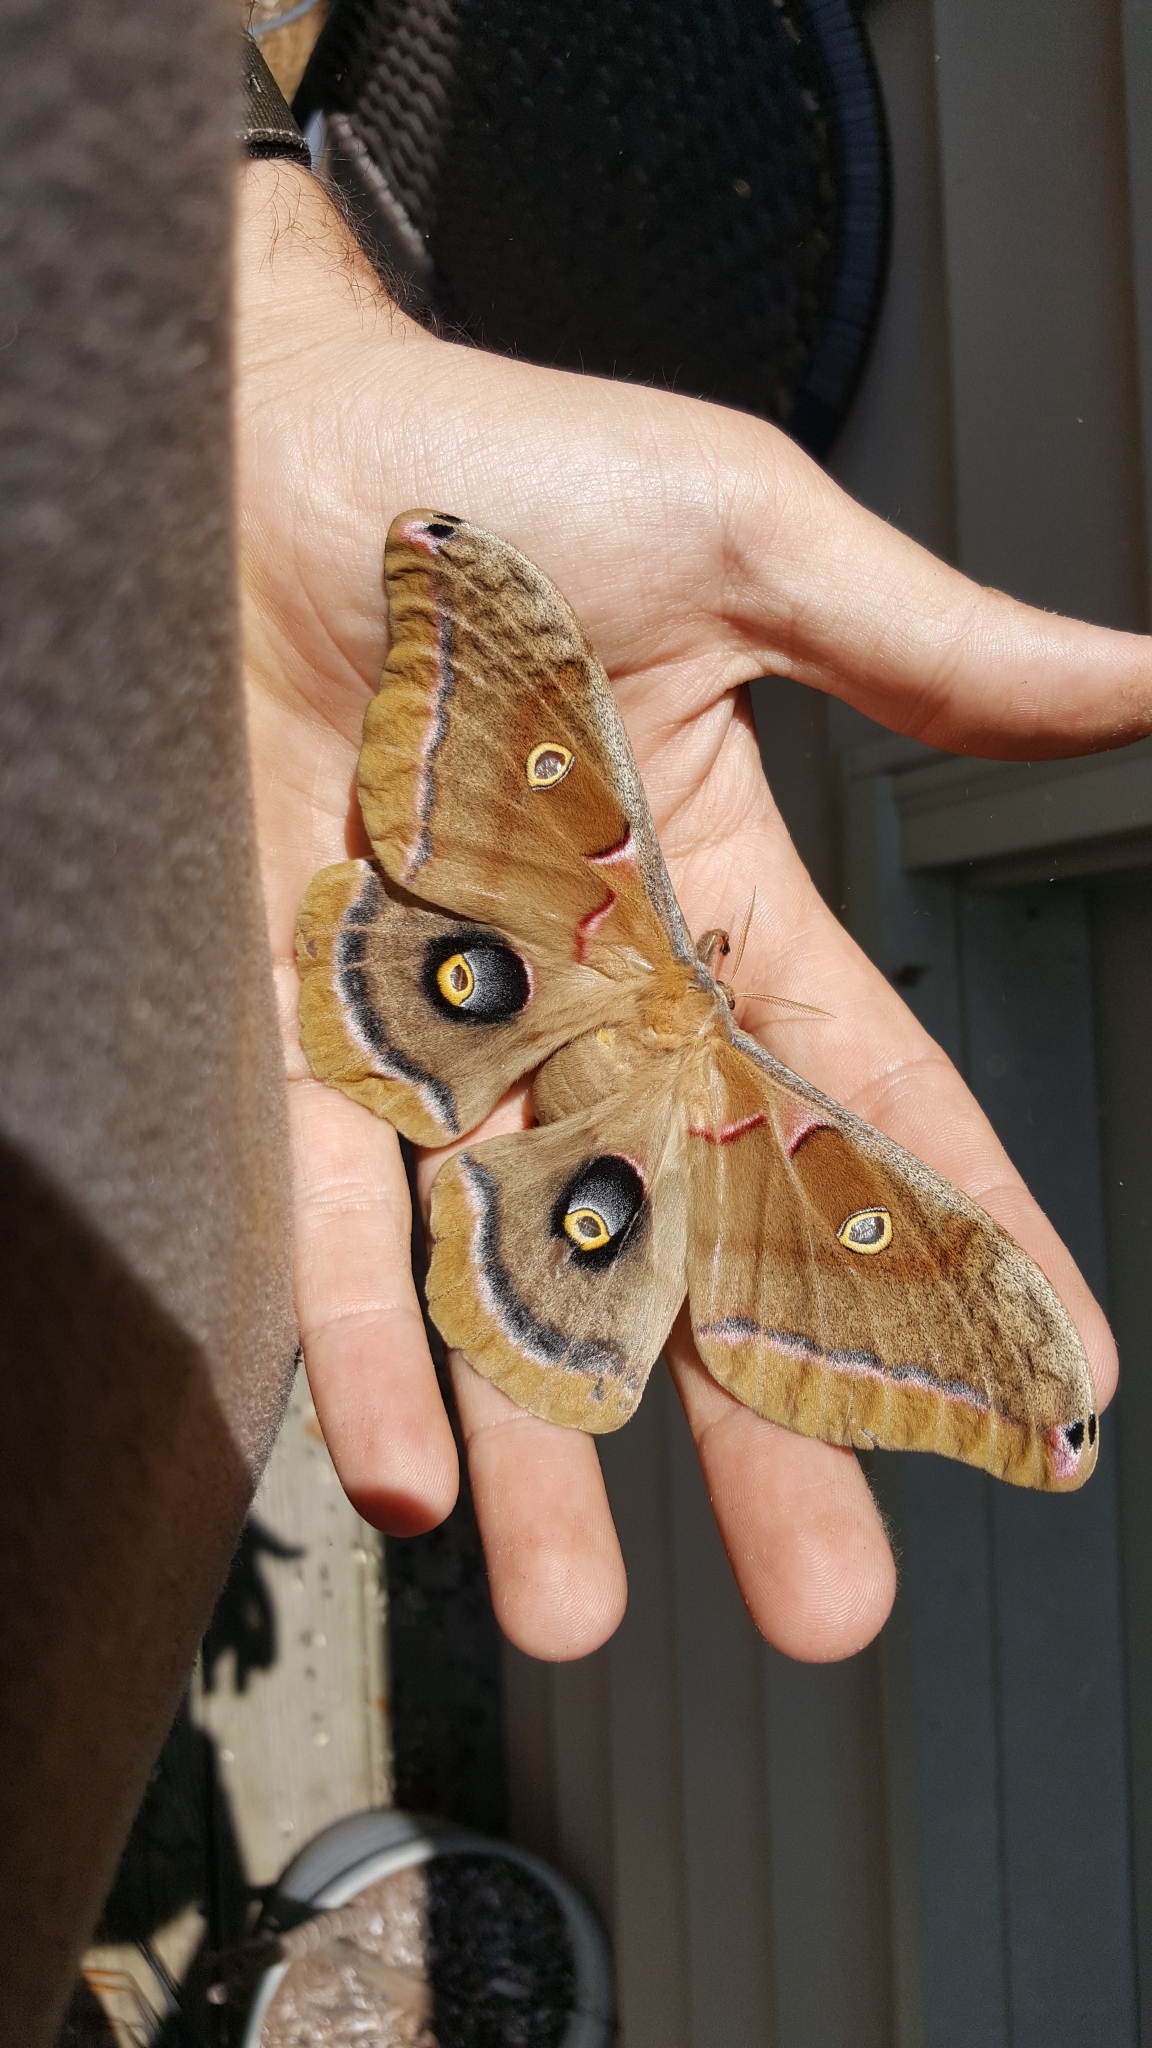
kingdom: Animalia
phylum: Arthropoda
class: Insecta
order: Lepidoptera
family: Saturniidae
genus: Antheraea
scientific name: Antheraea polyphemus
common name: Polyphemus moth
